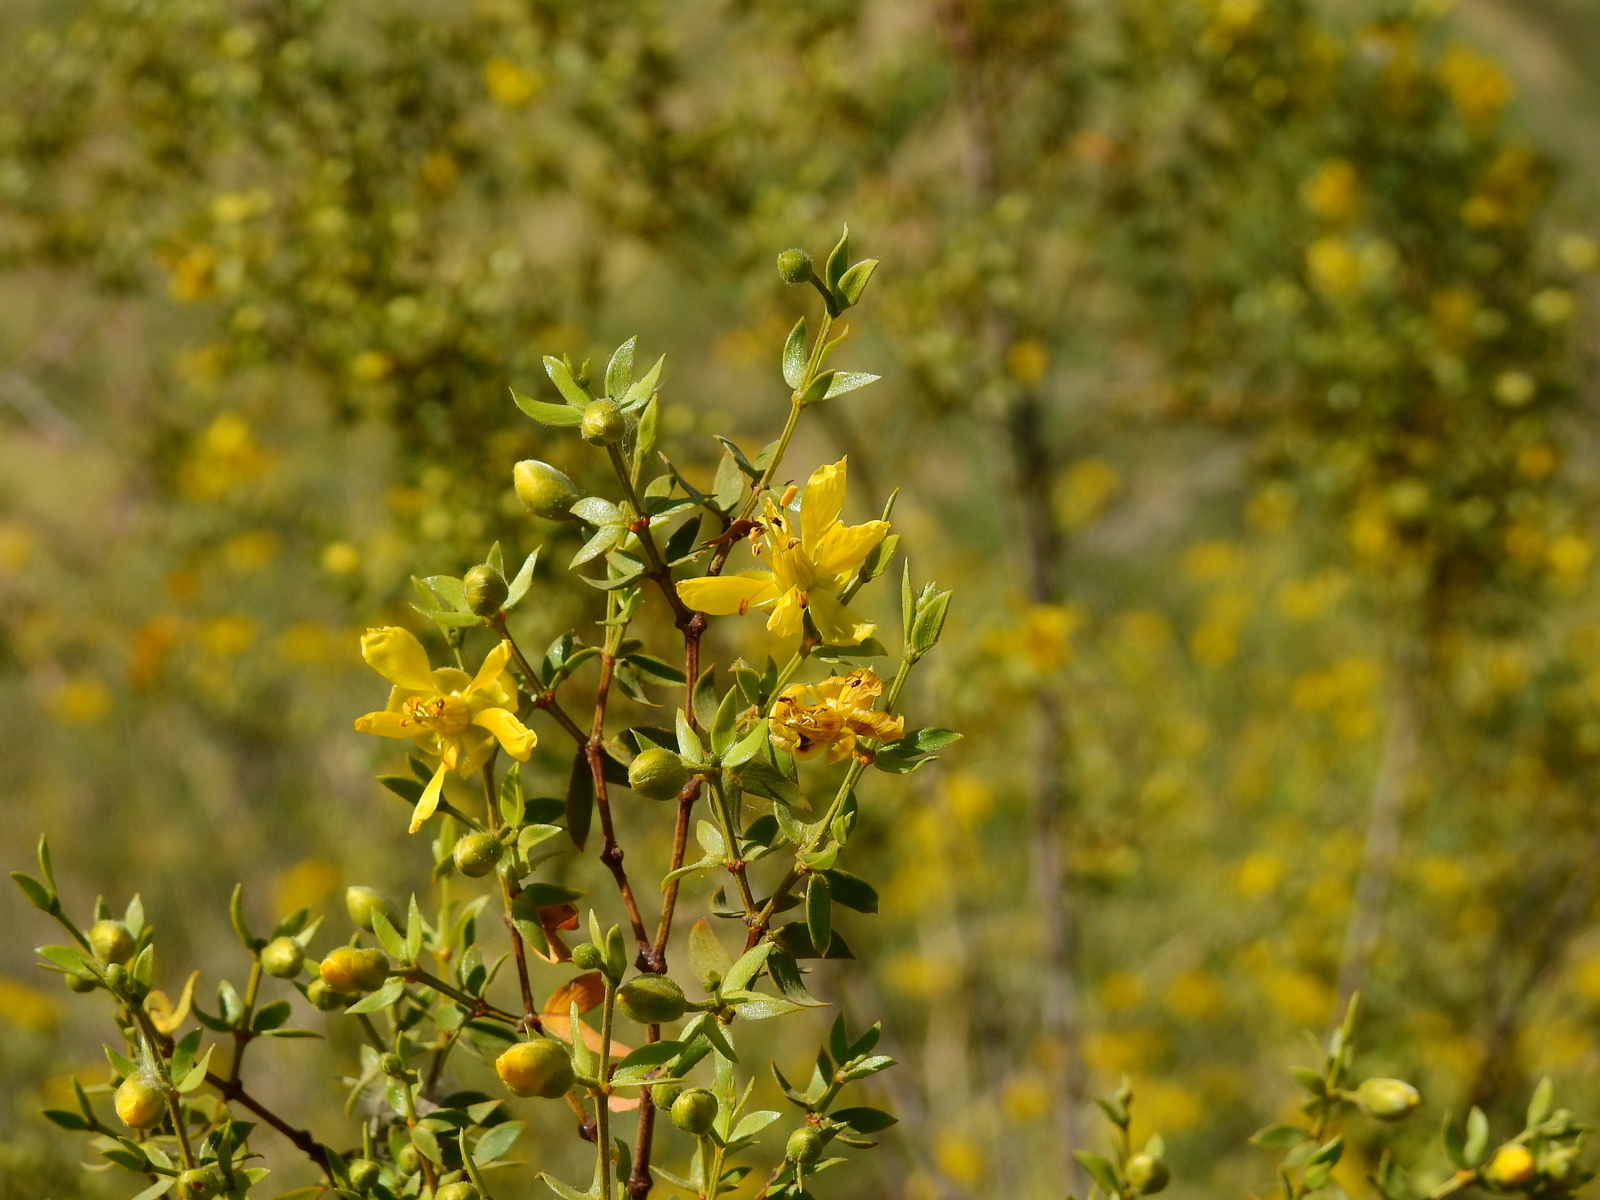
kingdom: Plantae
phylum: Tracheophyta
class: Magnoliopsida
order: Zygophyllales
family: Zygophyllaceae
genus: Larrea
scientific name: Larrea divaricata
